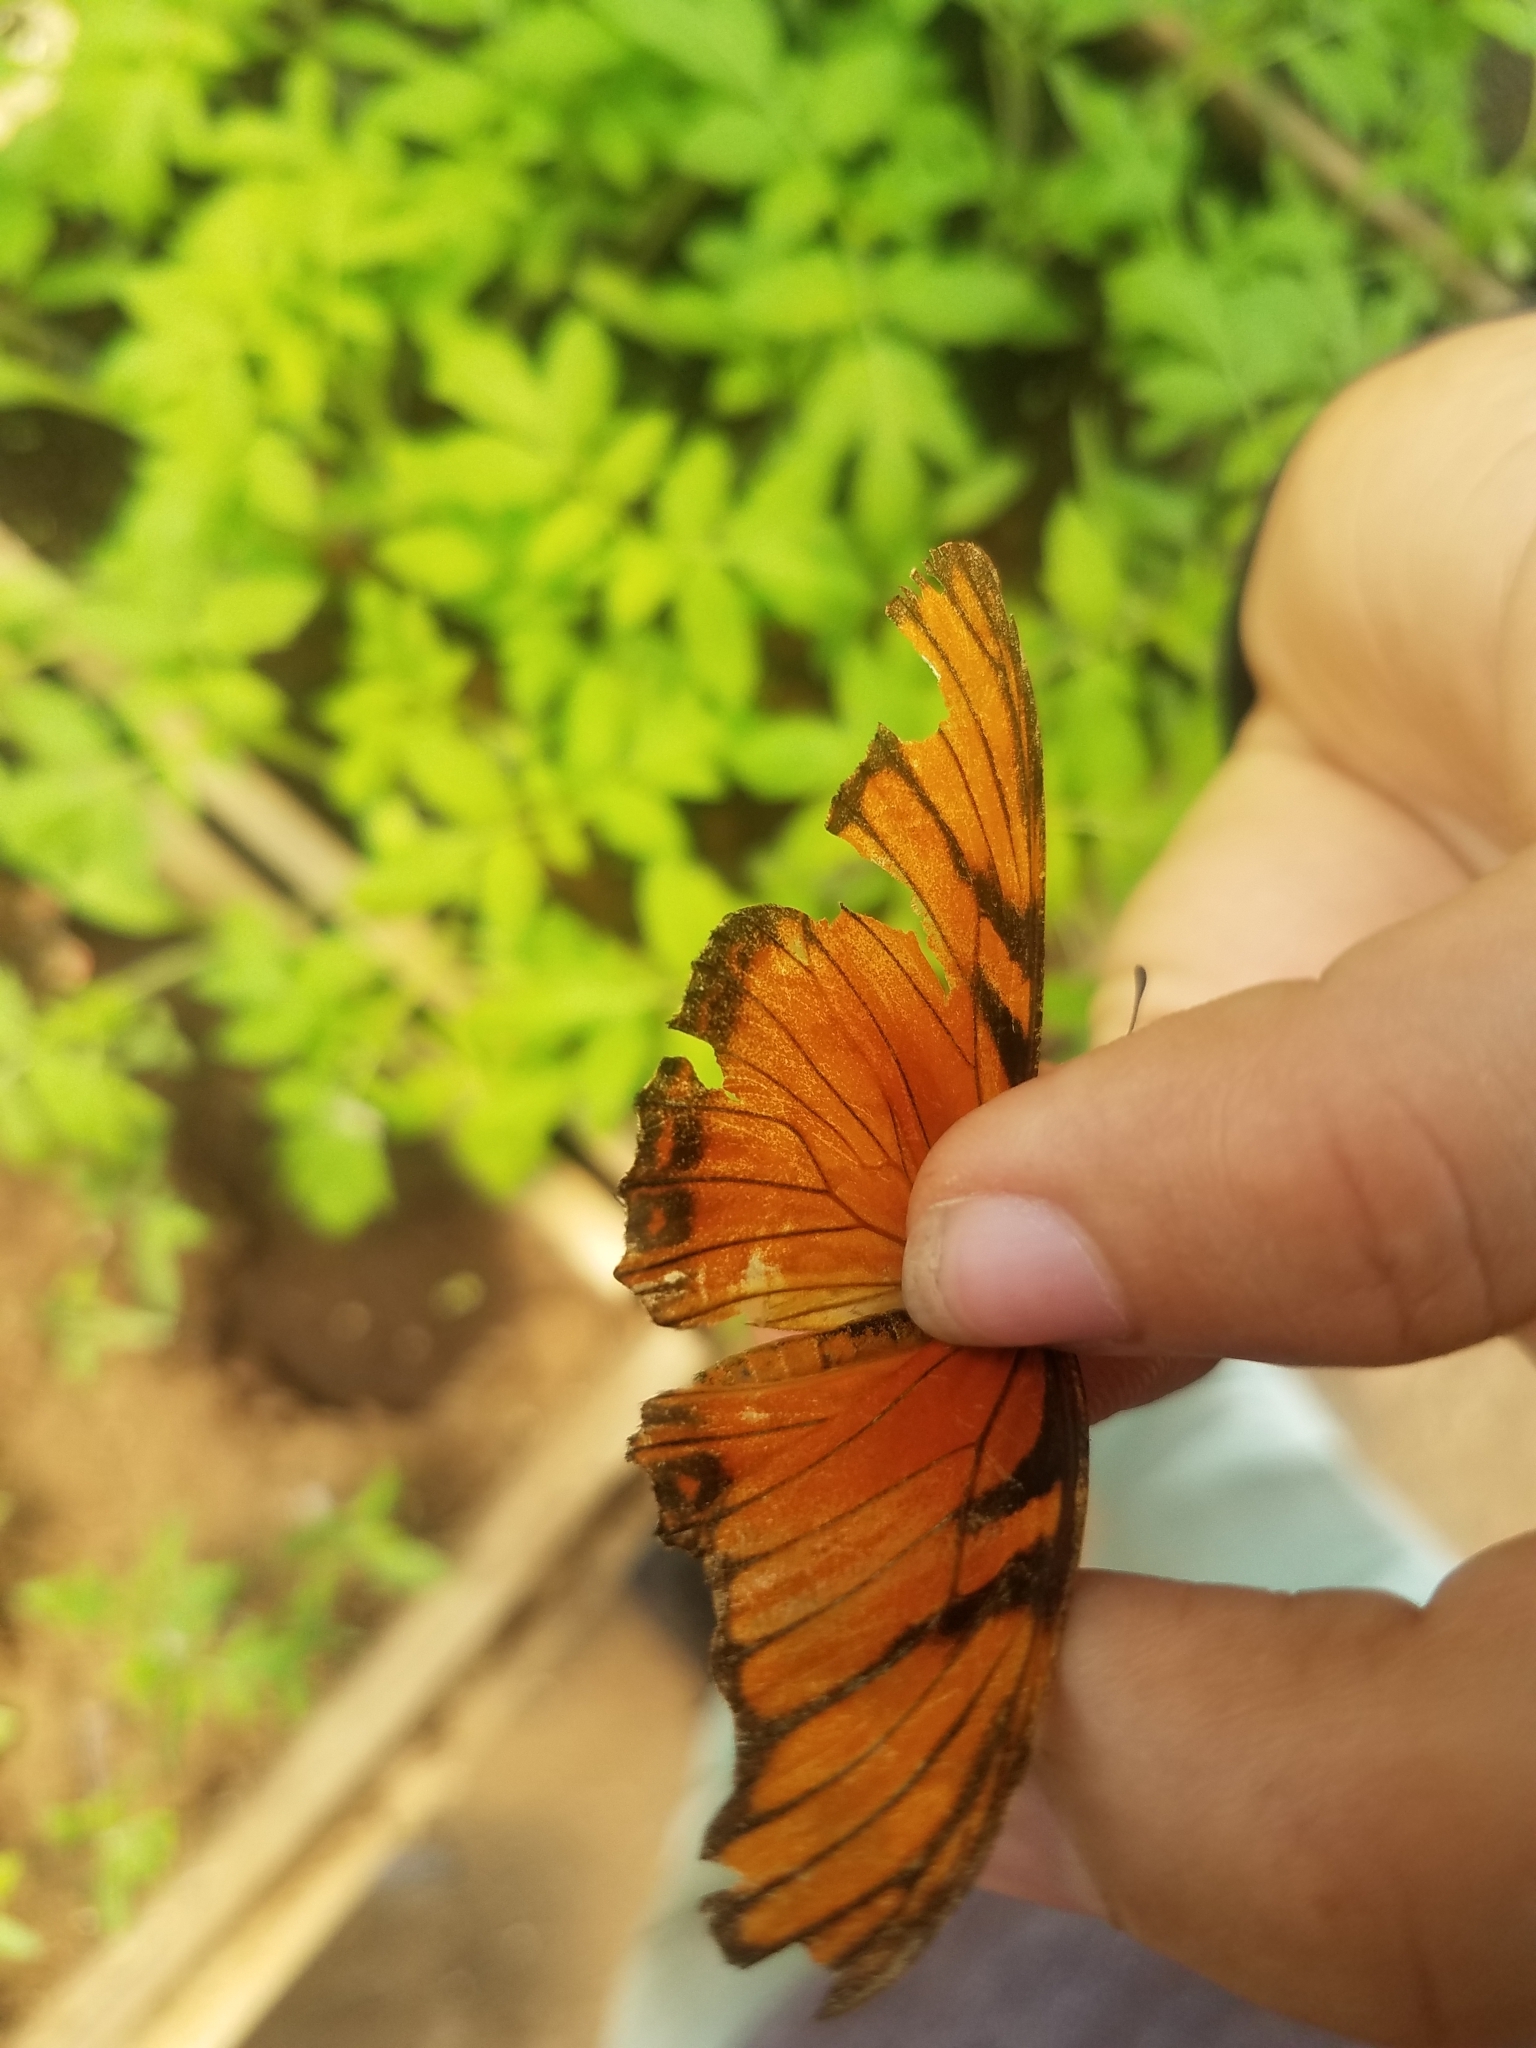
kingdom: Animalia
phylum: Arthropoda
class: Insecta
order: Lepidoptera
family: Nymphalidae
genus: Dione
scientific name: Dione juno
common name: Juno silverspot
